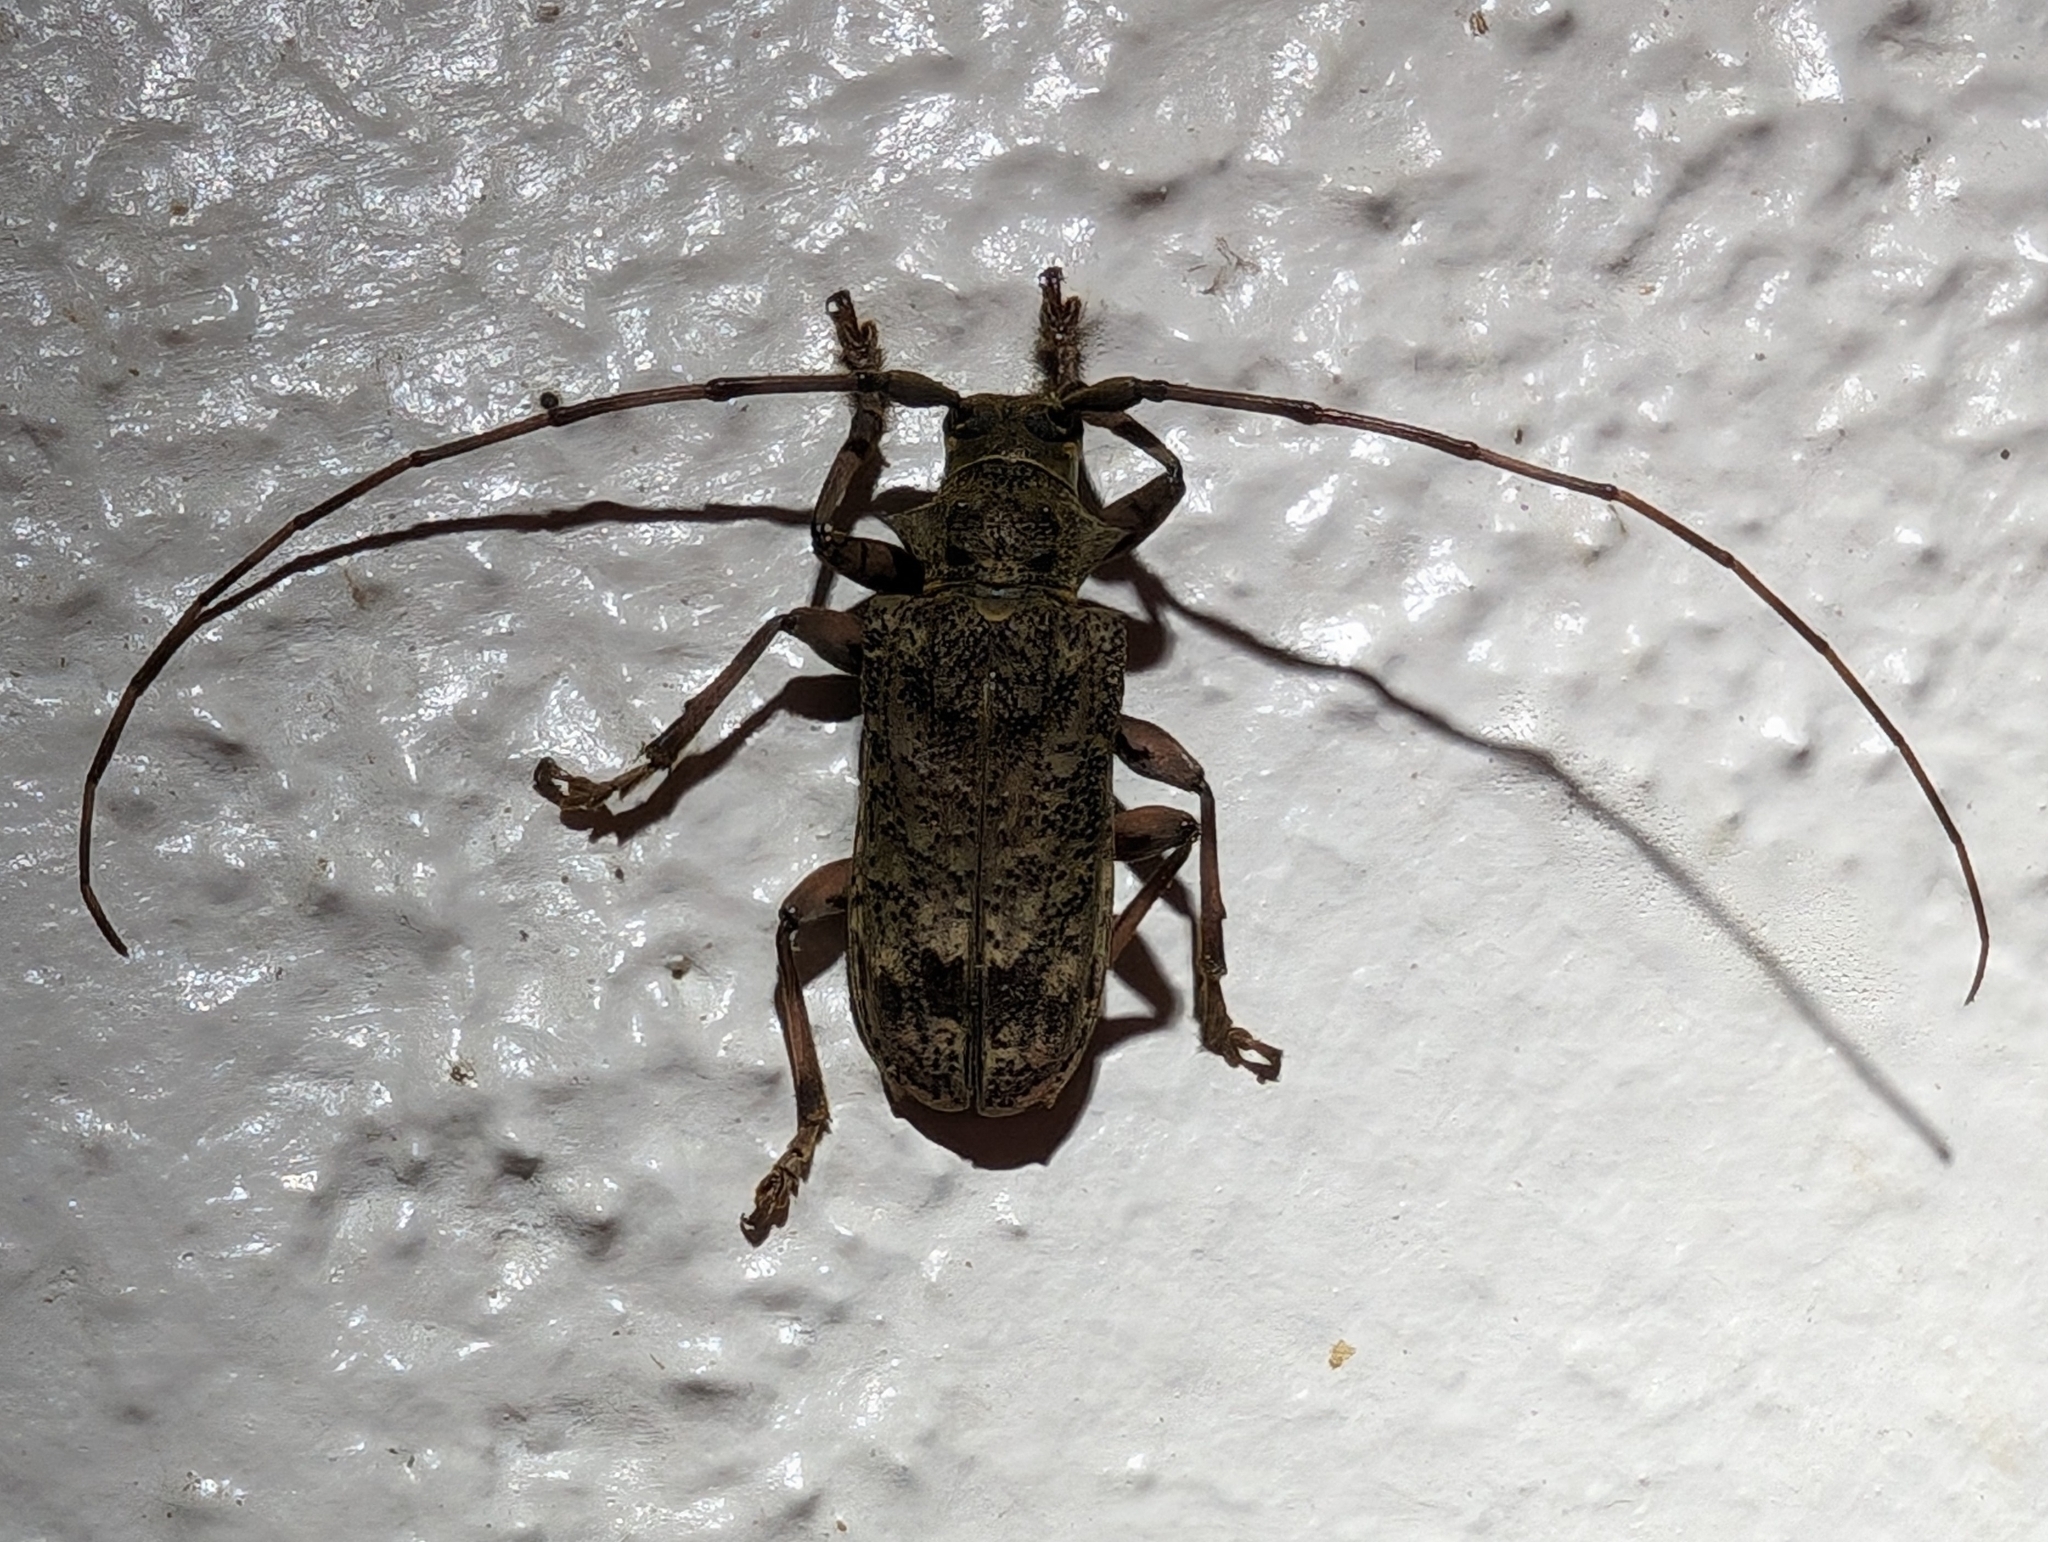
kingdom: Animalia
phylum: Arthropoda
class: Insecta
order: Coleoptera
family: Cerambycidae
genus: Polyrhaphis
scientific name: Polyrhaphis angustata
